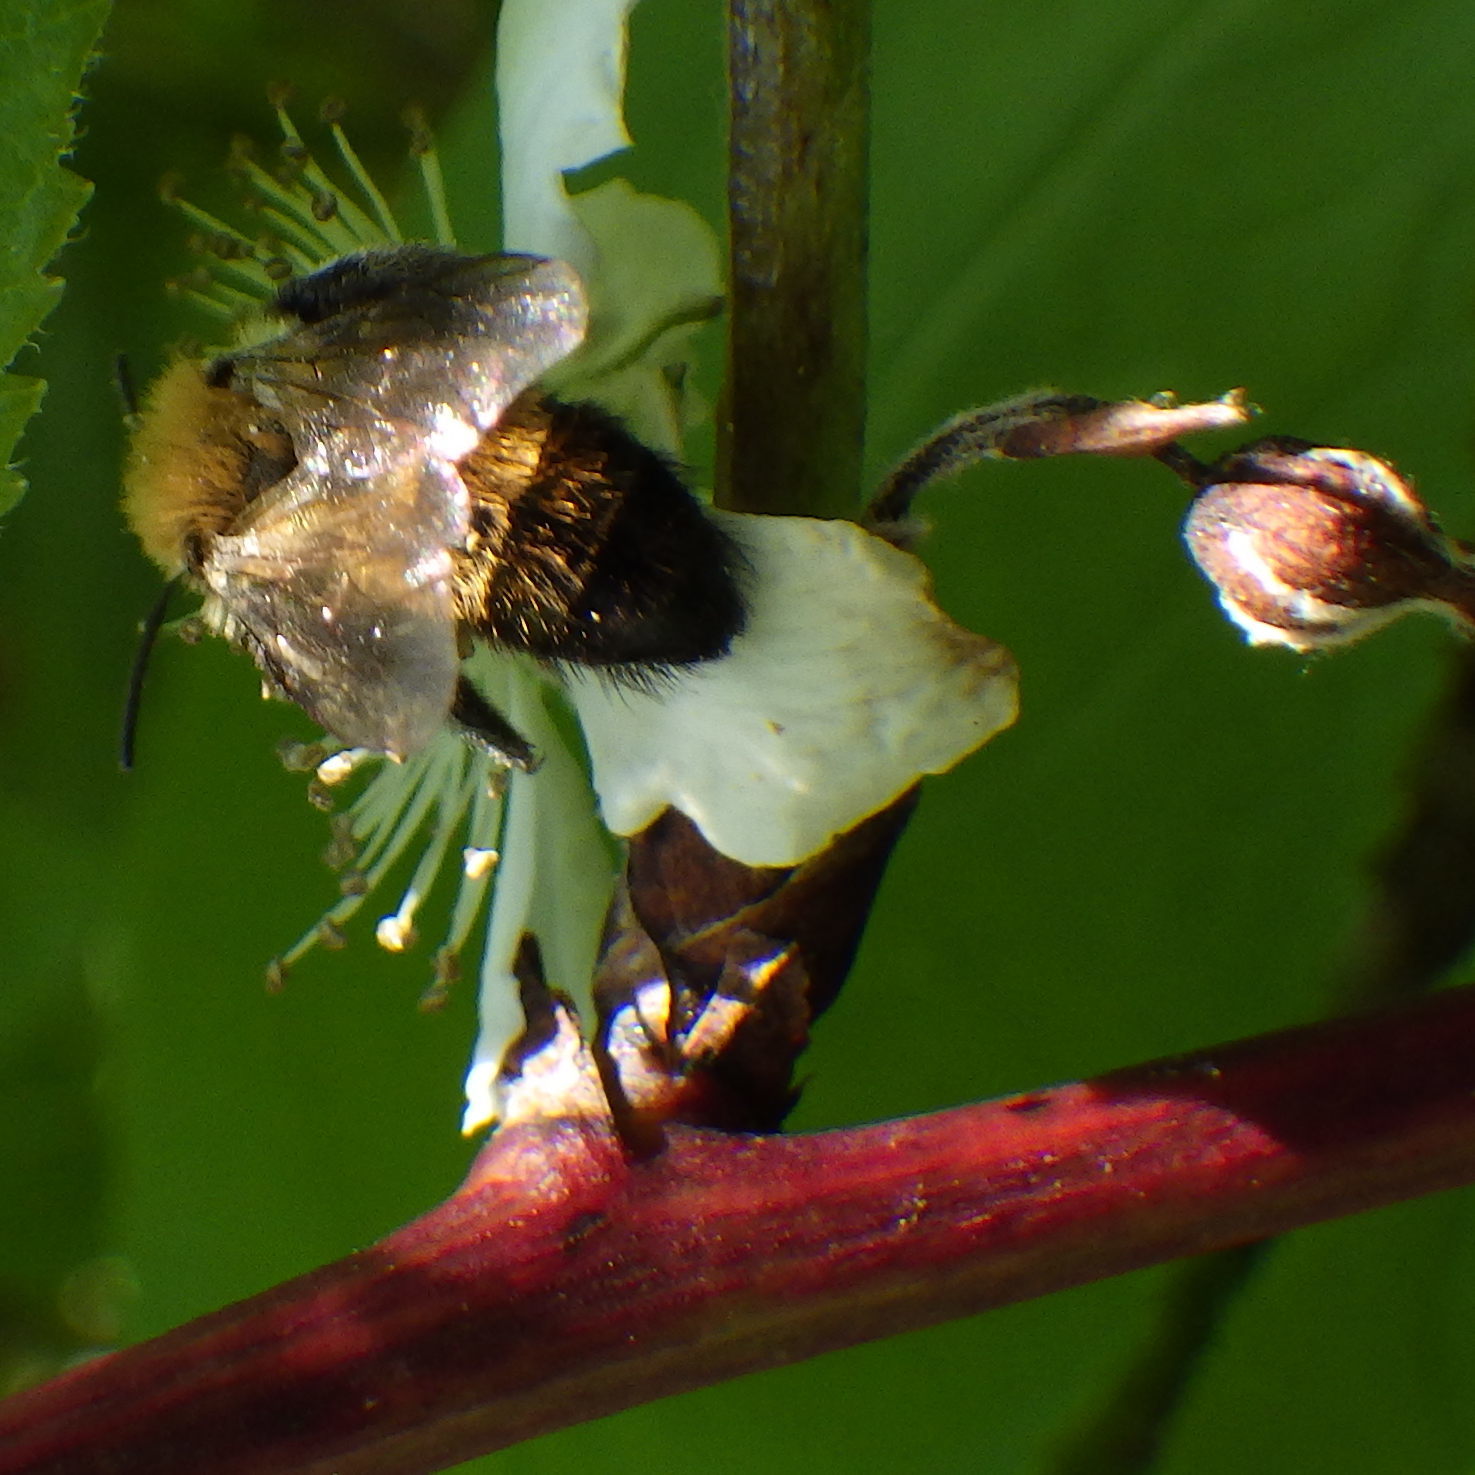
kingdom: Animalia
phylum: Arthropoda
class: Insecta
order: Hymenoptera
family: Andrenidae
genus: Andrena
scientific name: Andrena milwaukeensis
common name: Milwaukee mining bee
